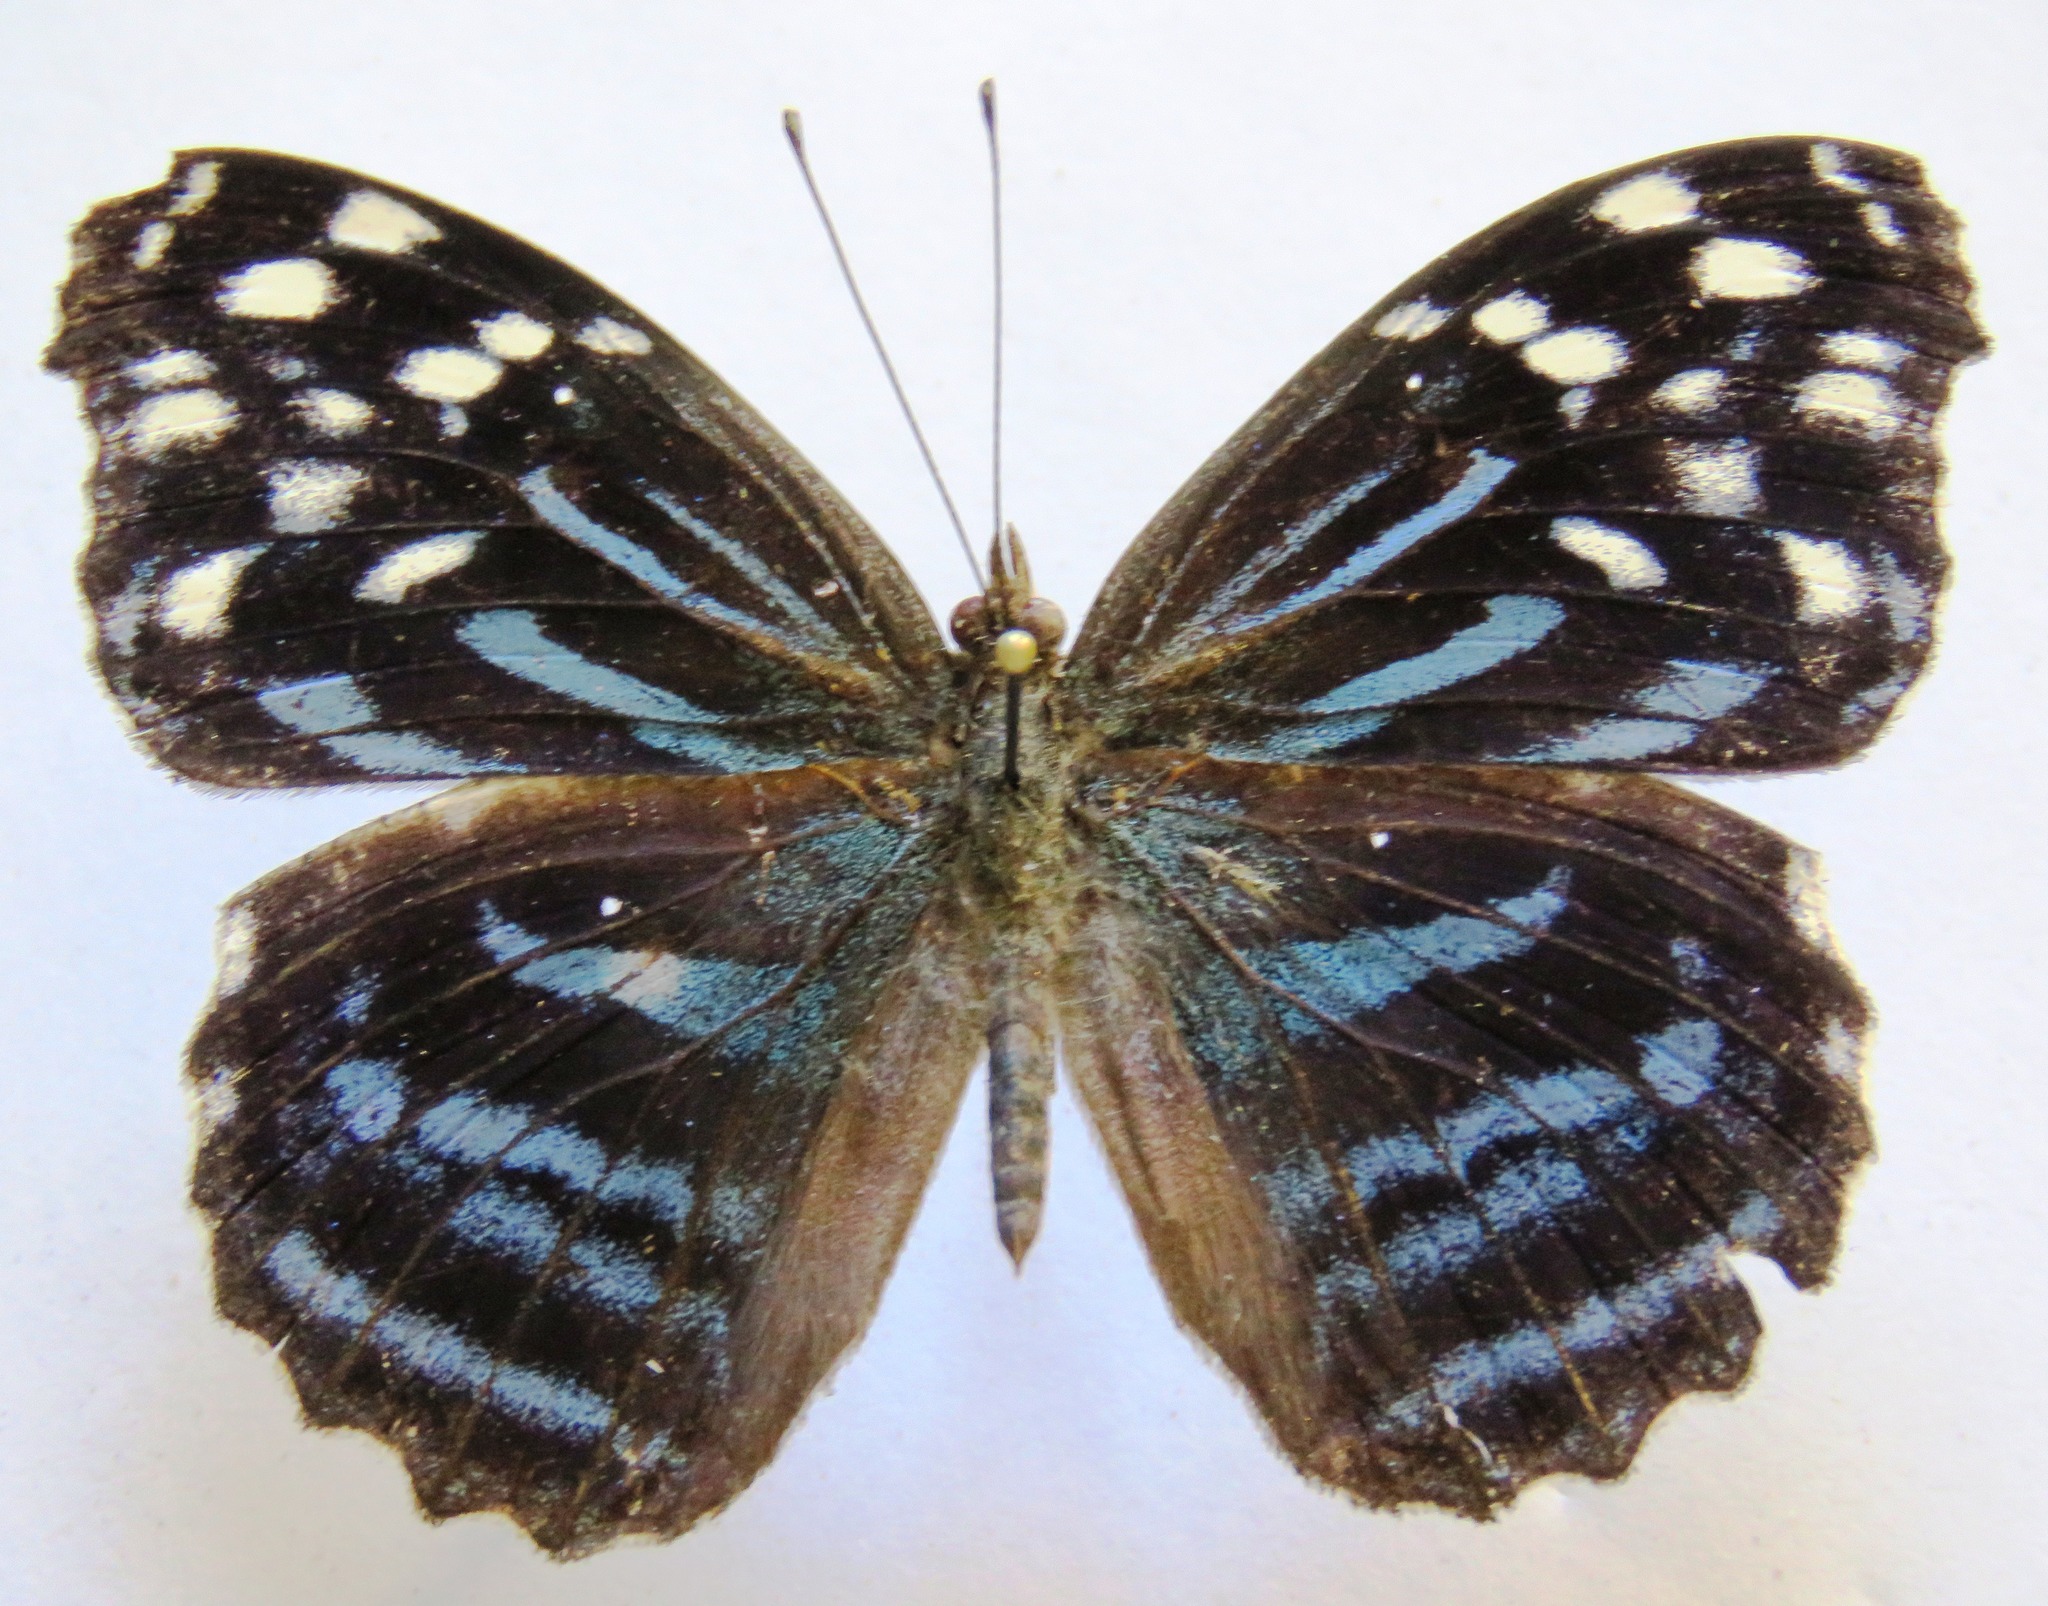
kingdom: Animalia
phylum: Arthropoda
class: Insecta
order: Lepidoptera
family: Nymphalidae
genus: Myscelia
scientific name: Myscelia ethusa
